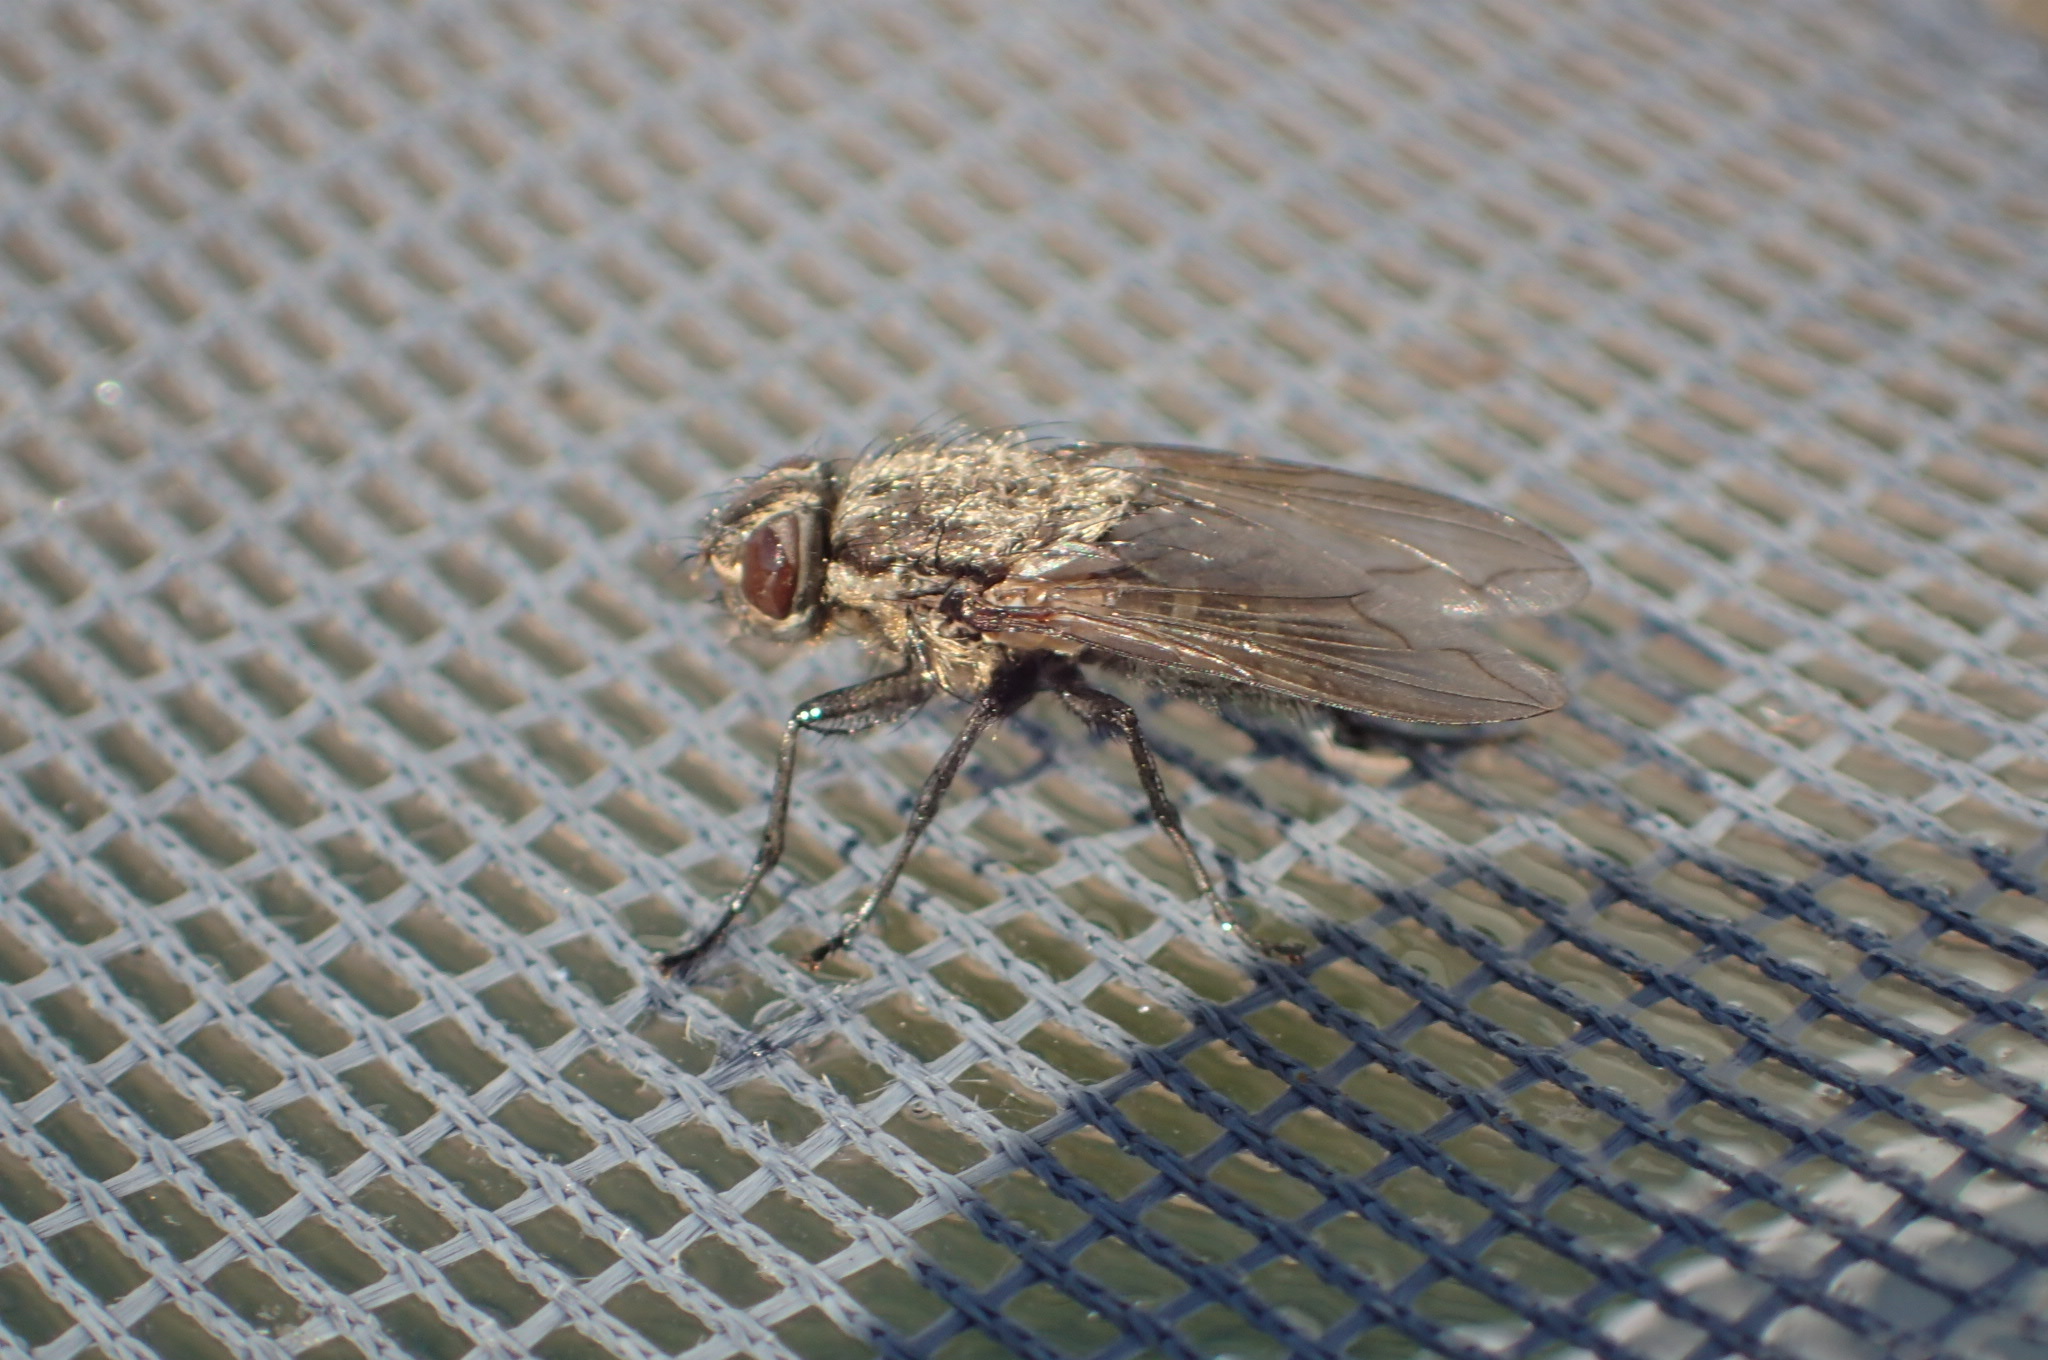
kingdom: Animalia
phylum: Arthropoda
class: Insecta
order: Diptera
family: Polleniidae
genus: Pollenia
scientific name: Pollenia
